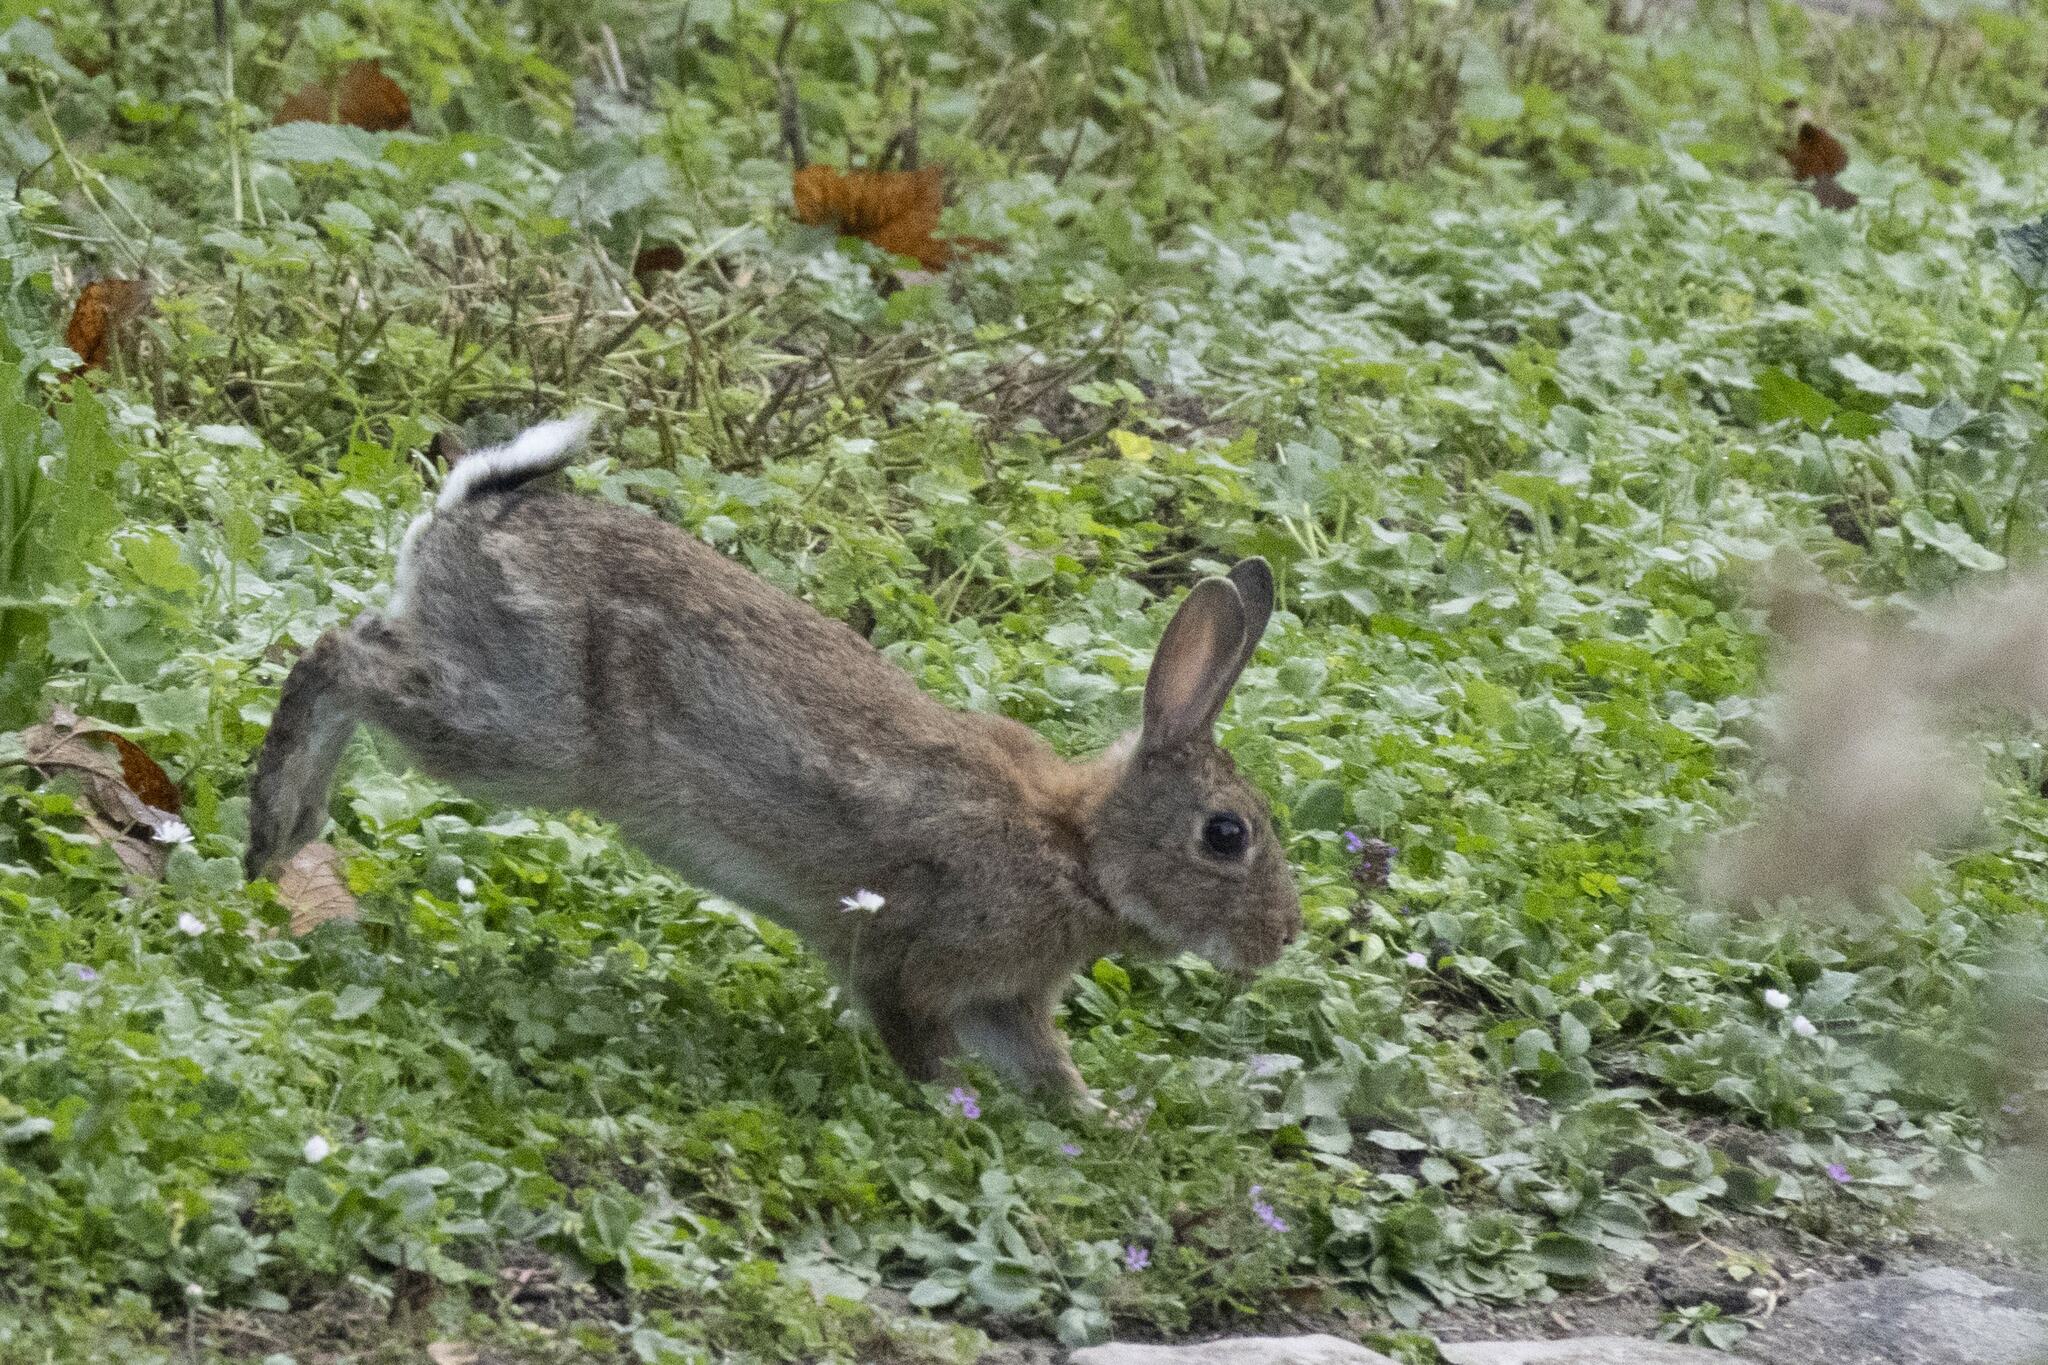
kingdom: Animalia
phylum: Chordata
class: Mammalia
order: Lagomorpha
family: Leporidae
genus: Oryctolagus
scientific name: Oryctolagus cuniculus
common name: European rabbit
